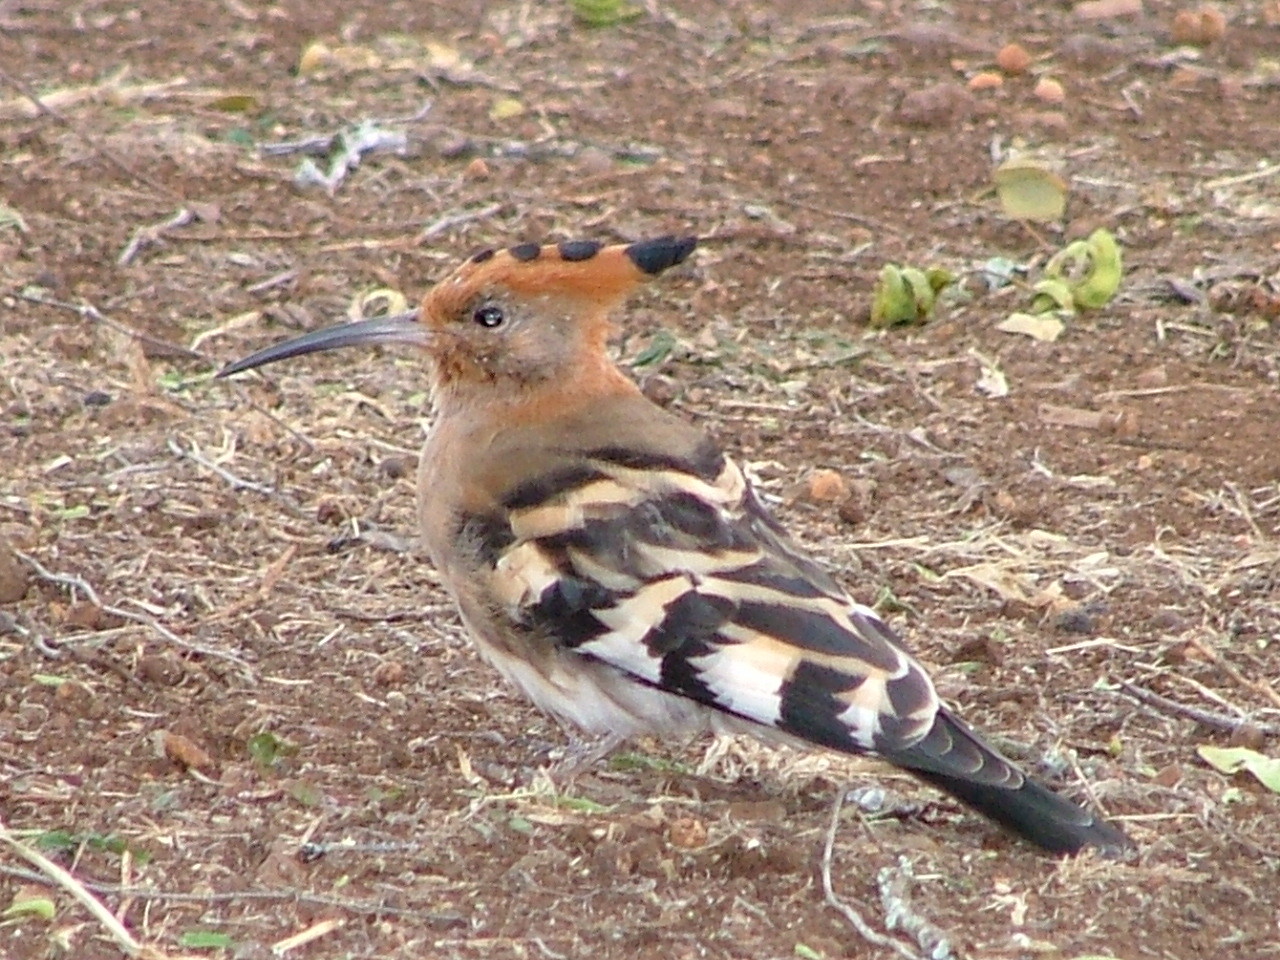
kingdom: Animalia
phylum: Chordata
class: Aves
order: Bucerotiformes
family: Upupidae
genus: Upupa
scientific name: Upupa africana
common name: African hoopoe
